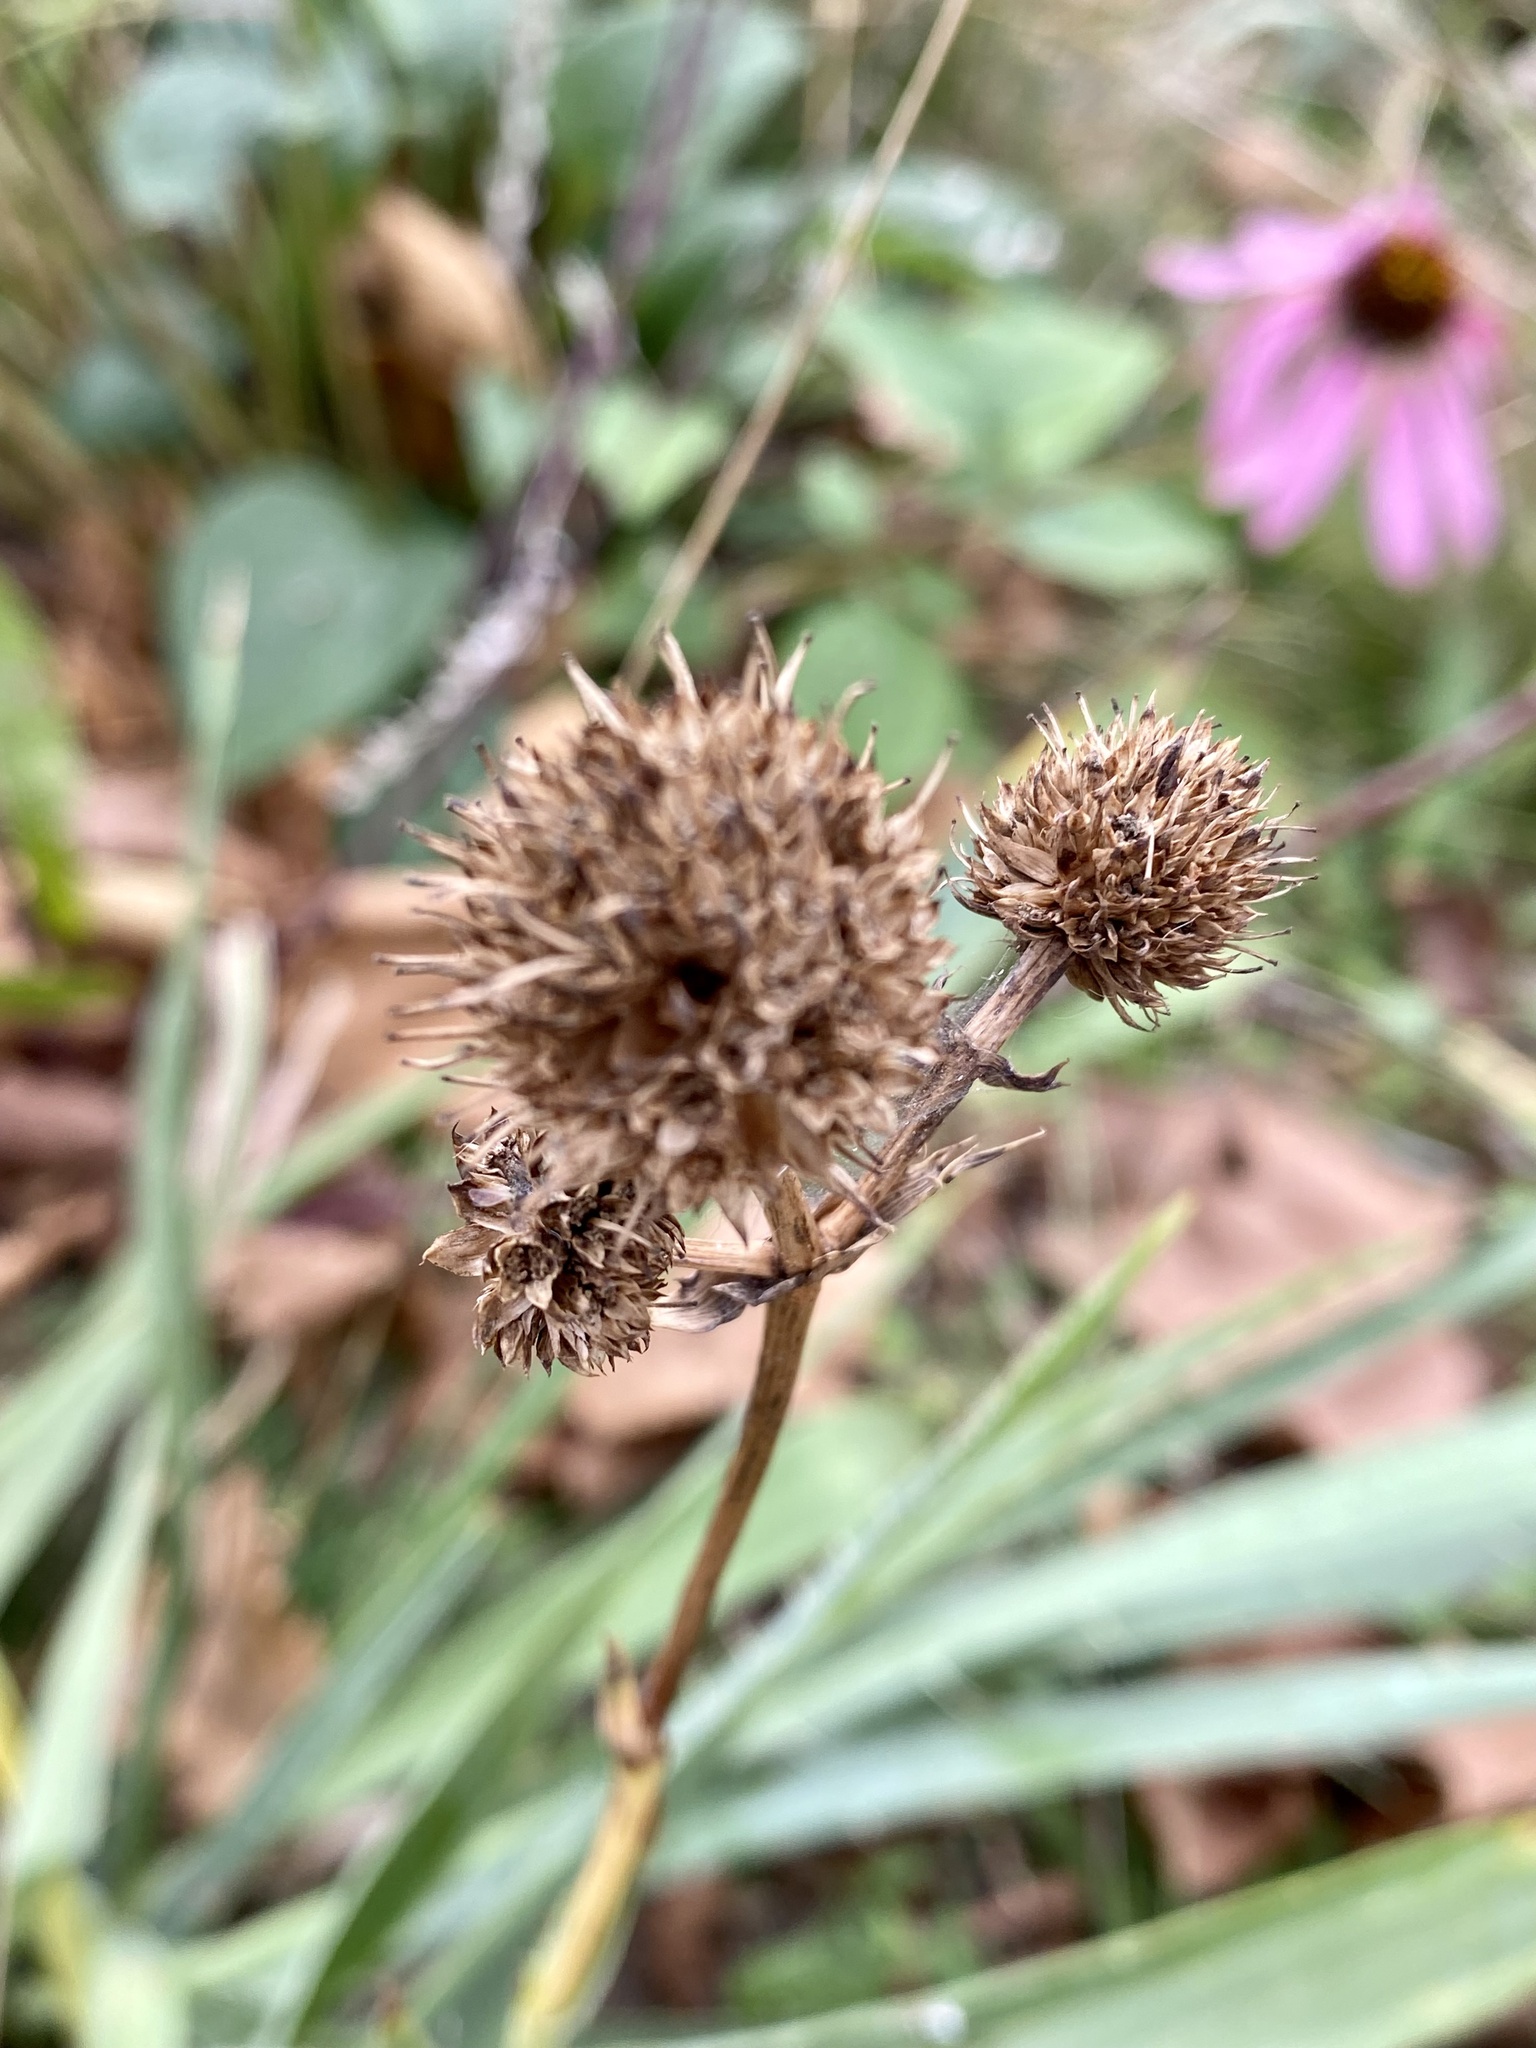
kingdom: Plantae
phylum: Tracheophyta
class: Magnoliopsida
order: Apiales
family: Apiaceae
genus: Eryngium
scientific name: Eryngium yuccifolium
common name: Button eryngo
